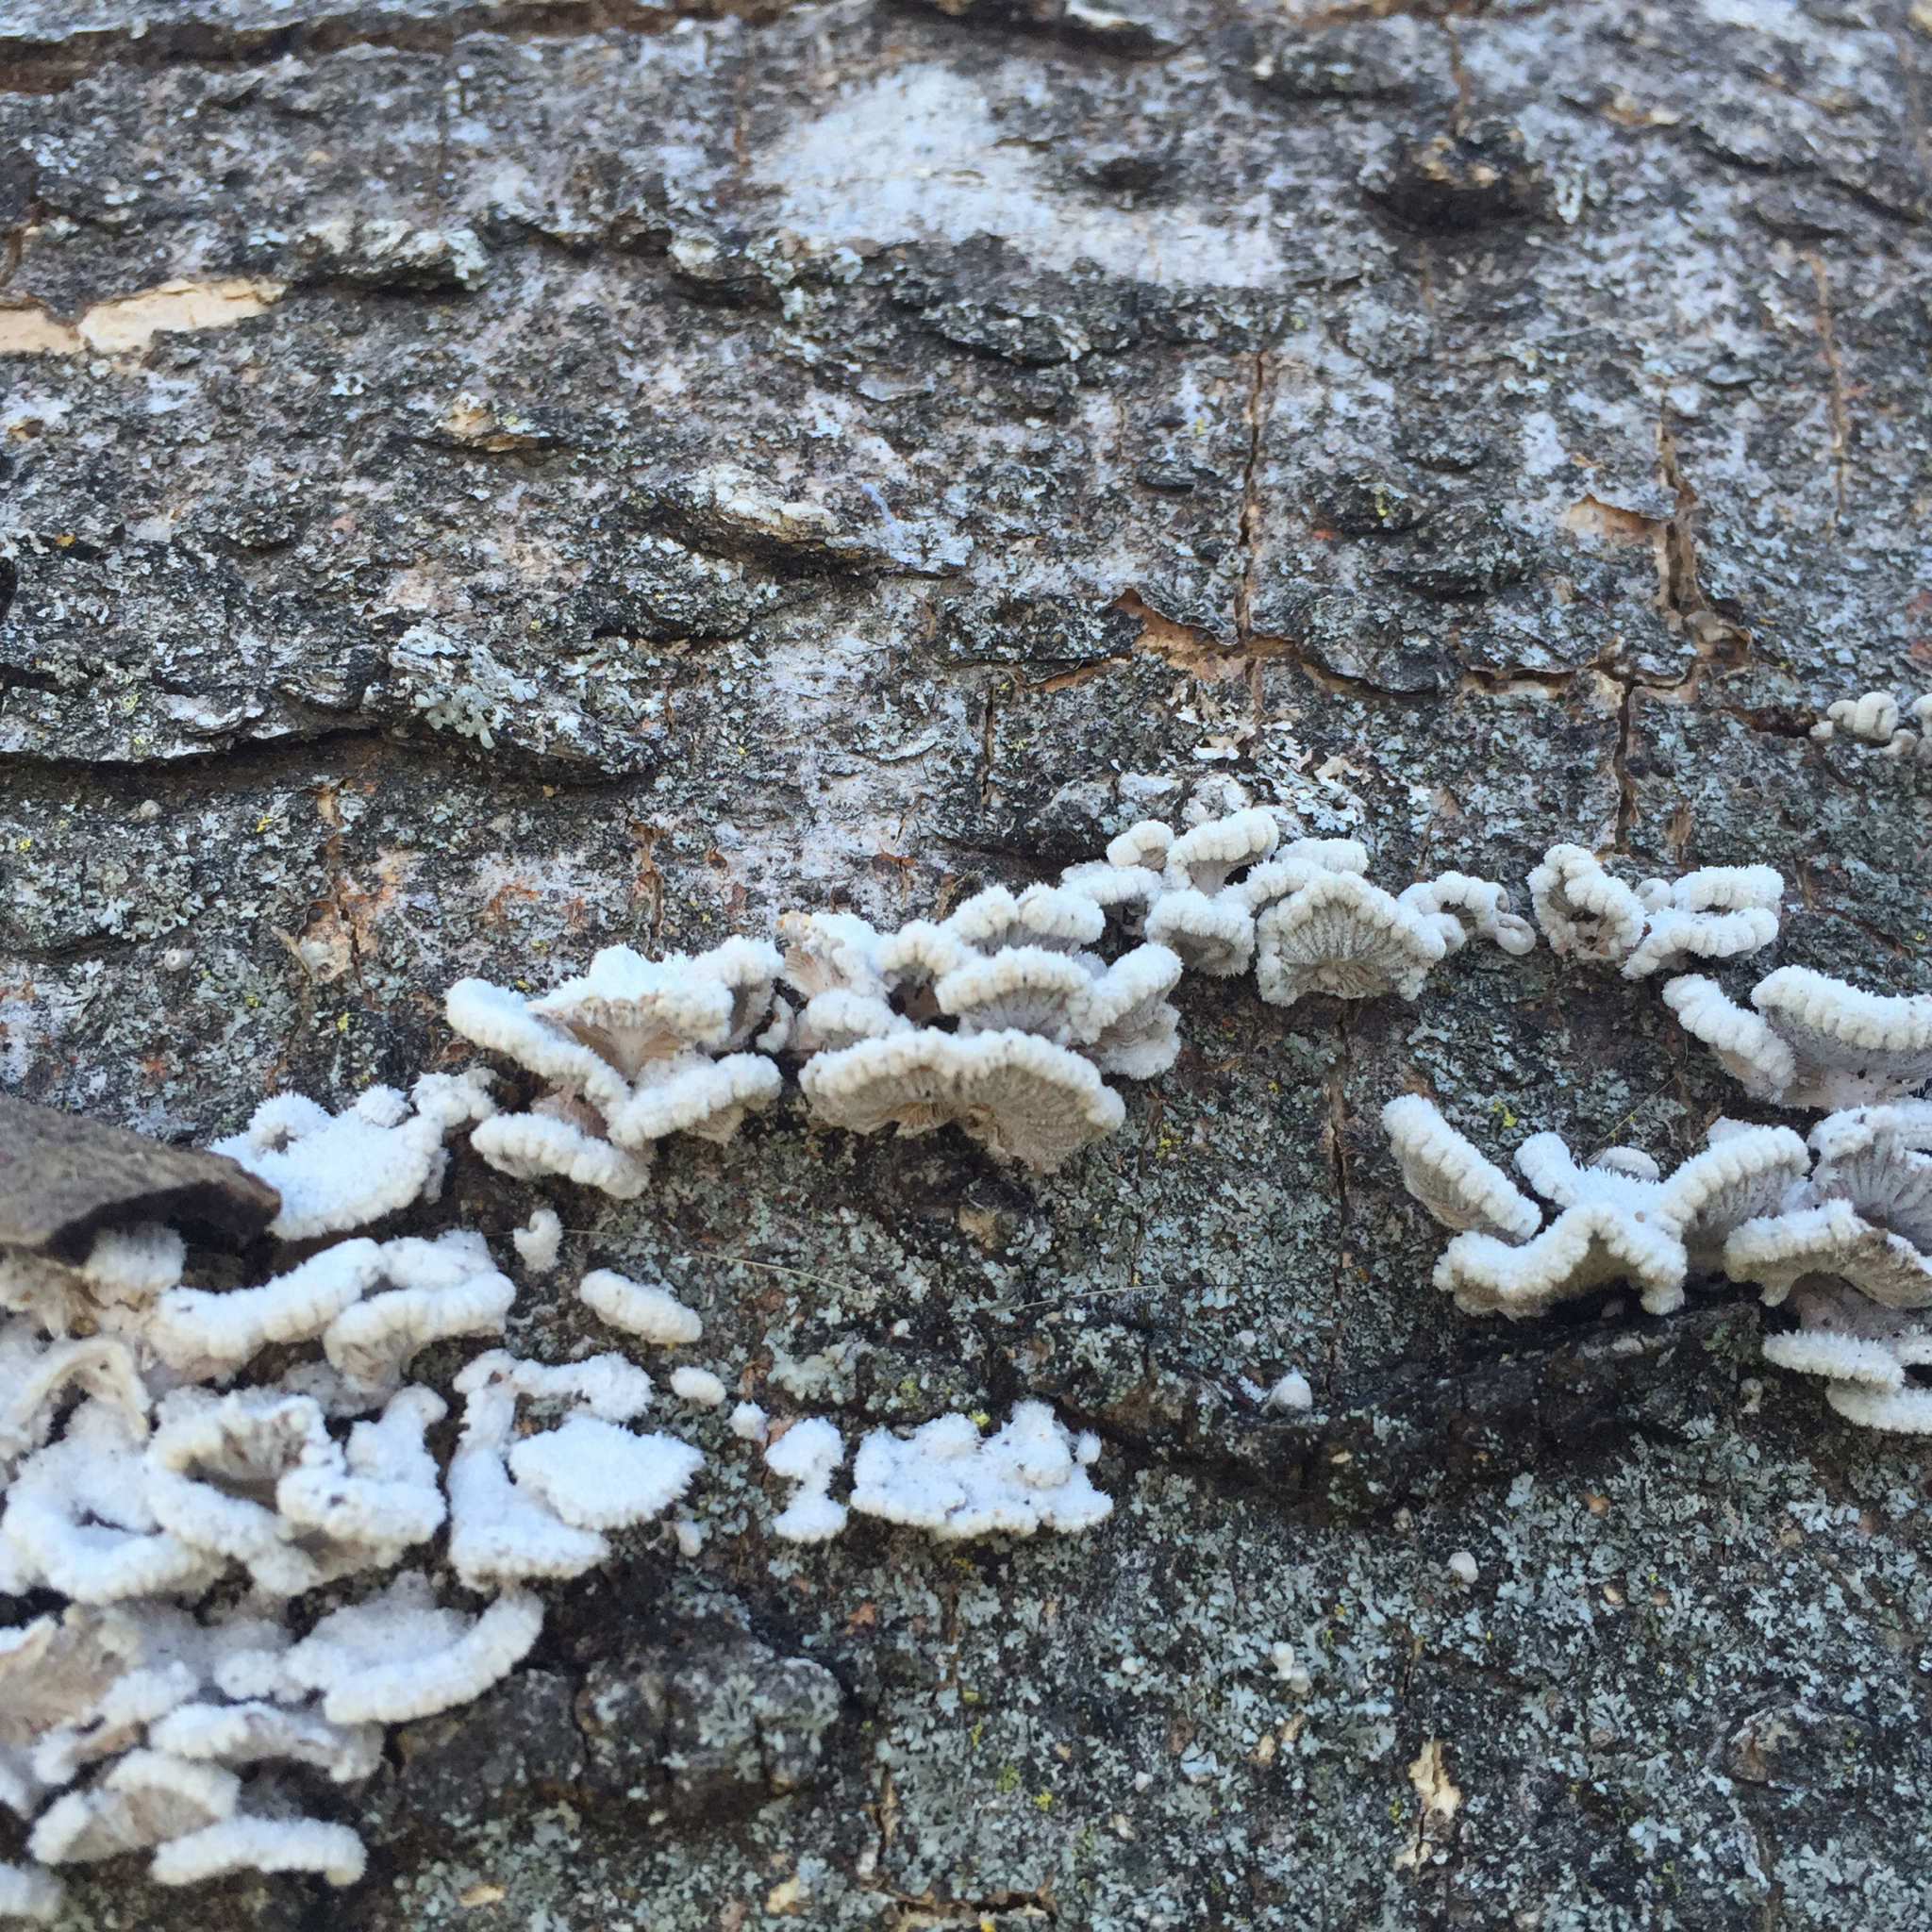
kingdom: Fungi
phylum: Basidiomycota
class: Agaricomycetes
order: Agaricales
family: Schizophyllaceae
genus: Schizophyllum
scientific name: Schizophyllum commune
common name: Common porecrust
